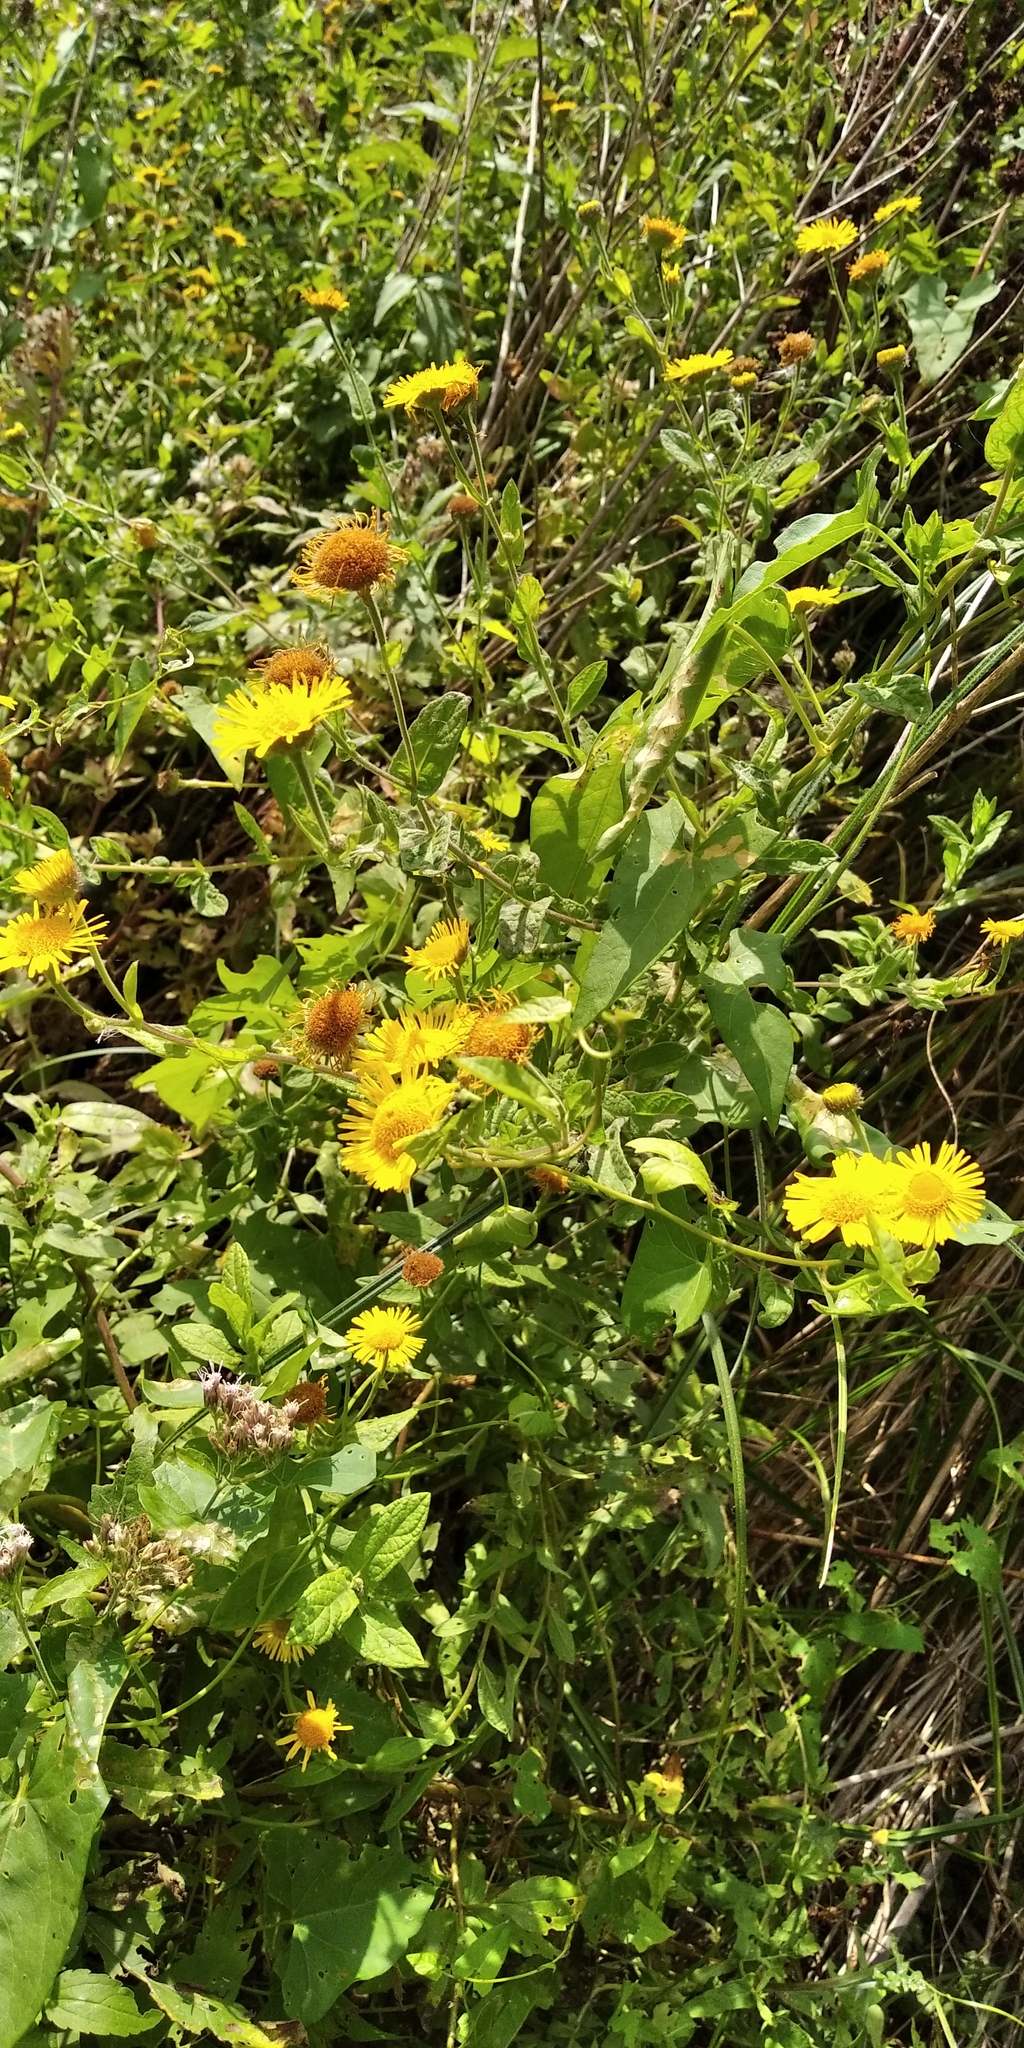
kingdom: Plantae
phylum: Tracheophyta
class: Magnoliopsida
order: Asterales
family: Asteraceae
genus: Pulicaria
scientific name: Pulicaria dysenterica
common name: Common fleabane
